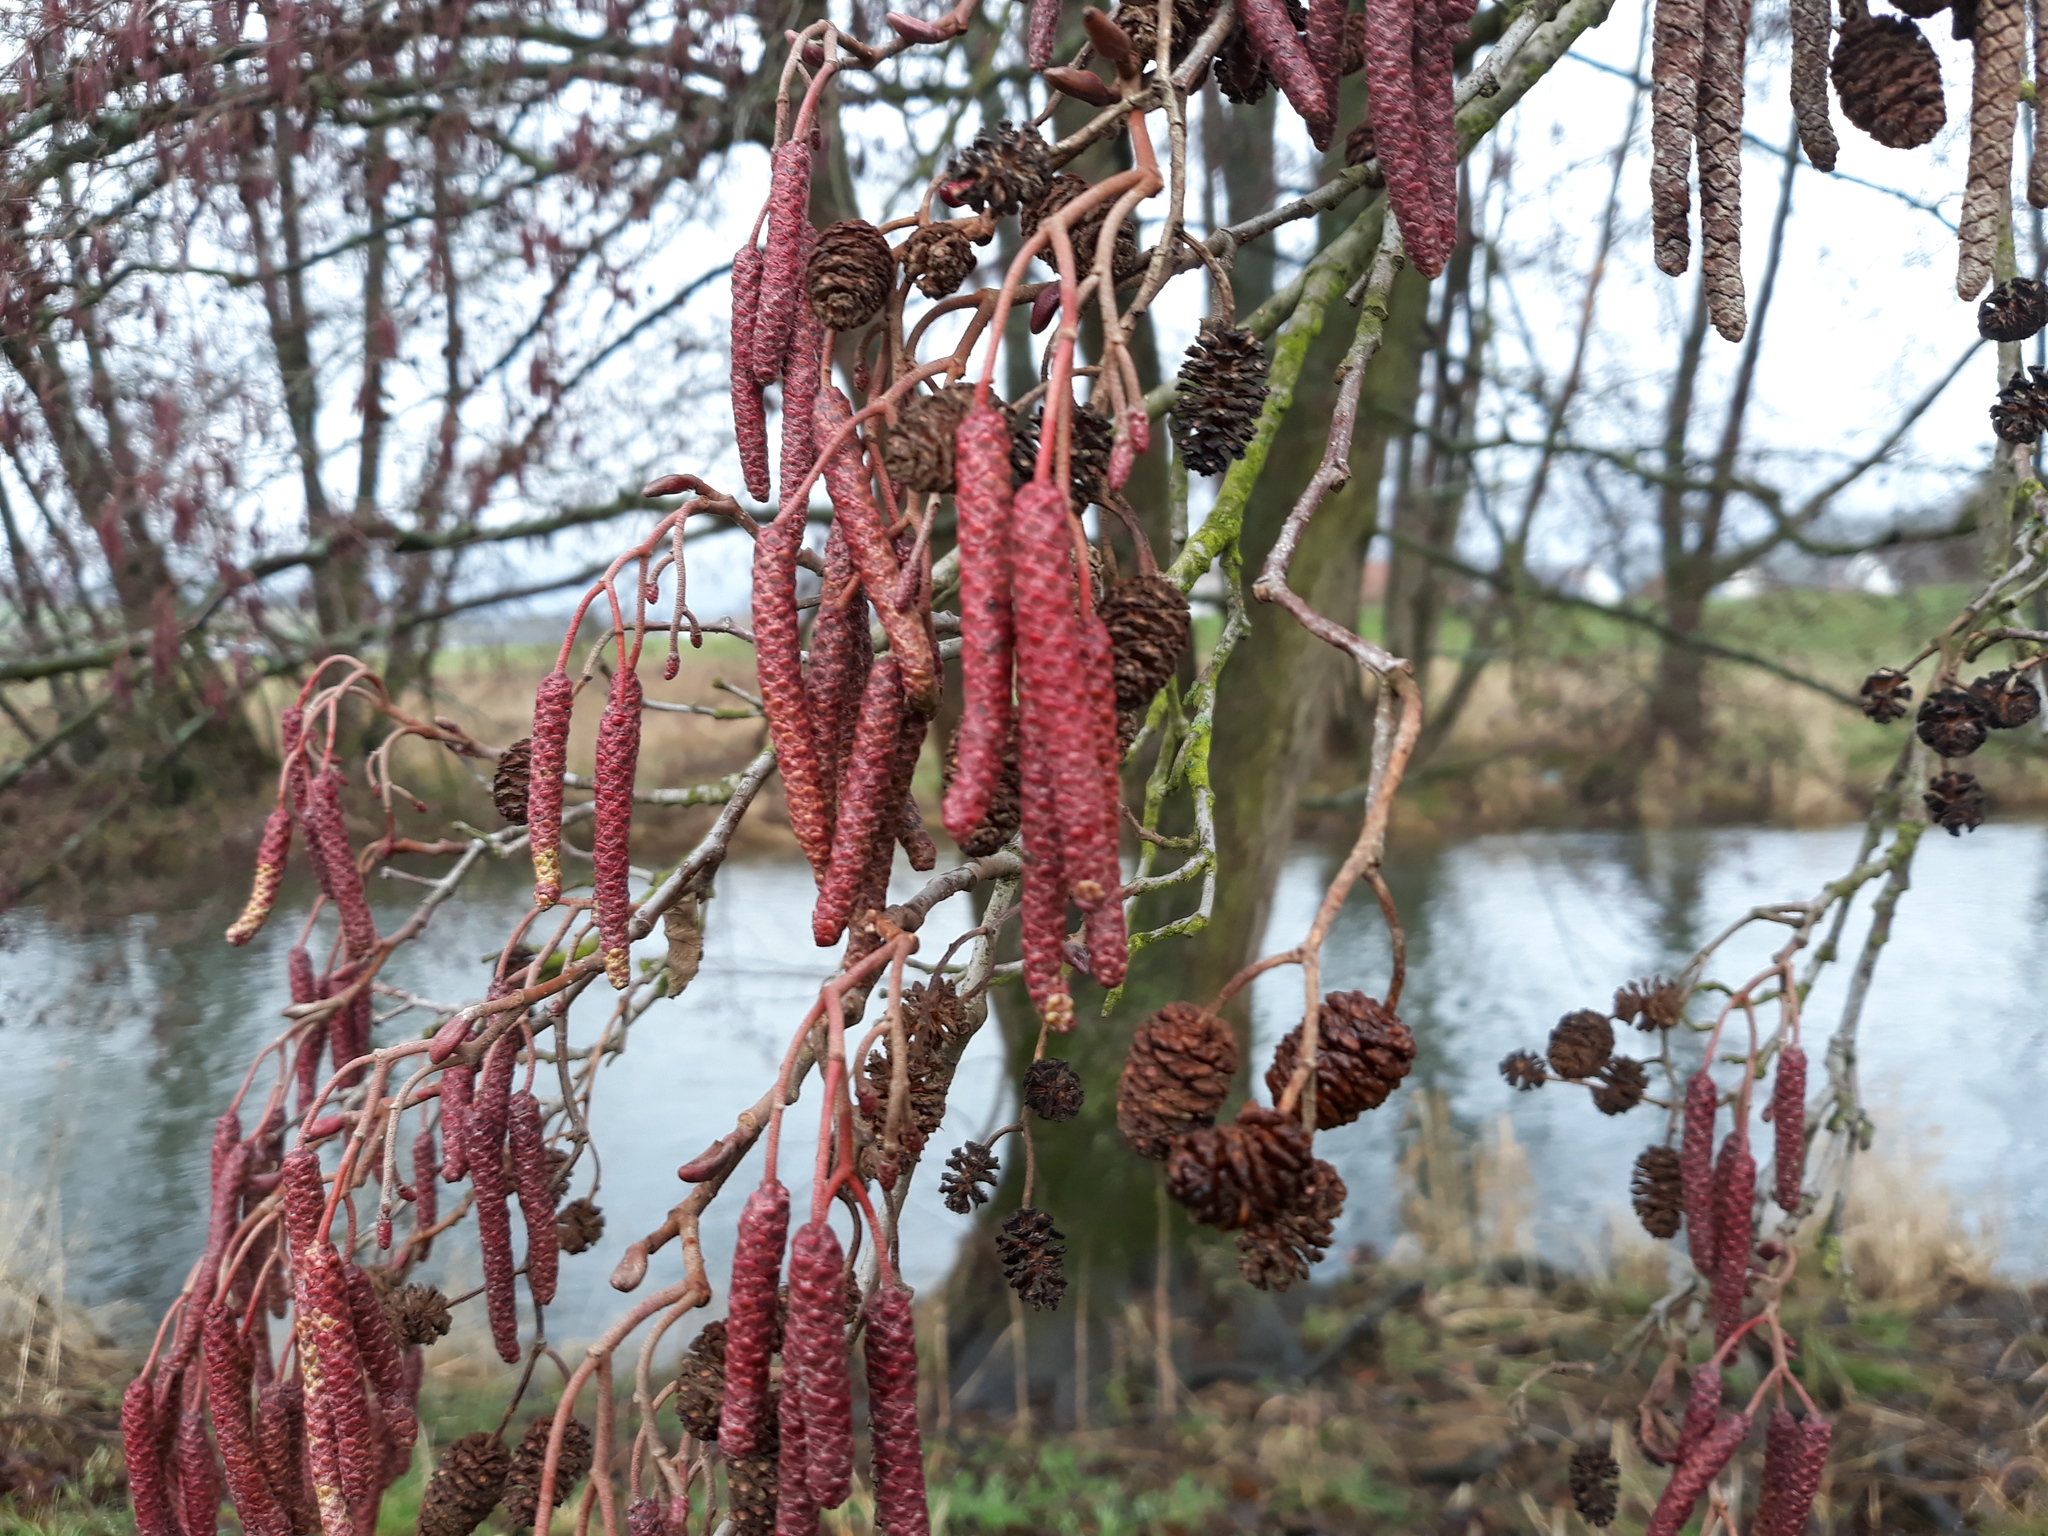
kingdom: Plantae
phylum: Tracheophyta
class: Magnoliopsida
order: Fagales
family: Betulaceae
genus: Alnus
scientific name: Alnus glutinosa
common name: Black alder
